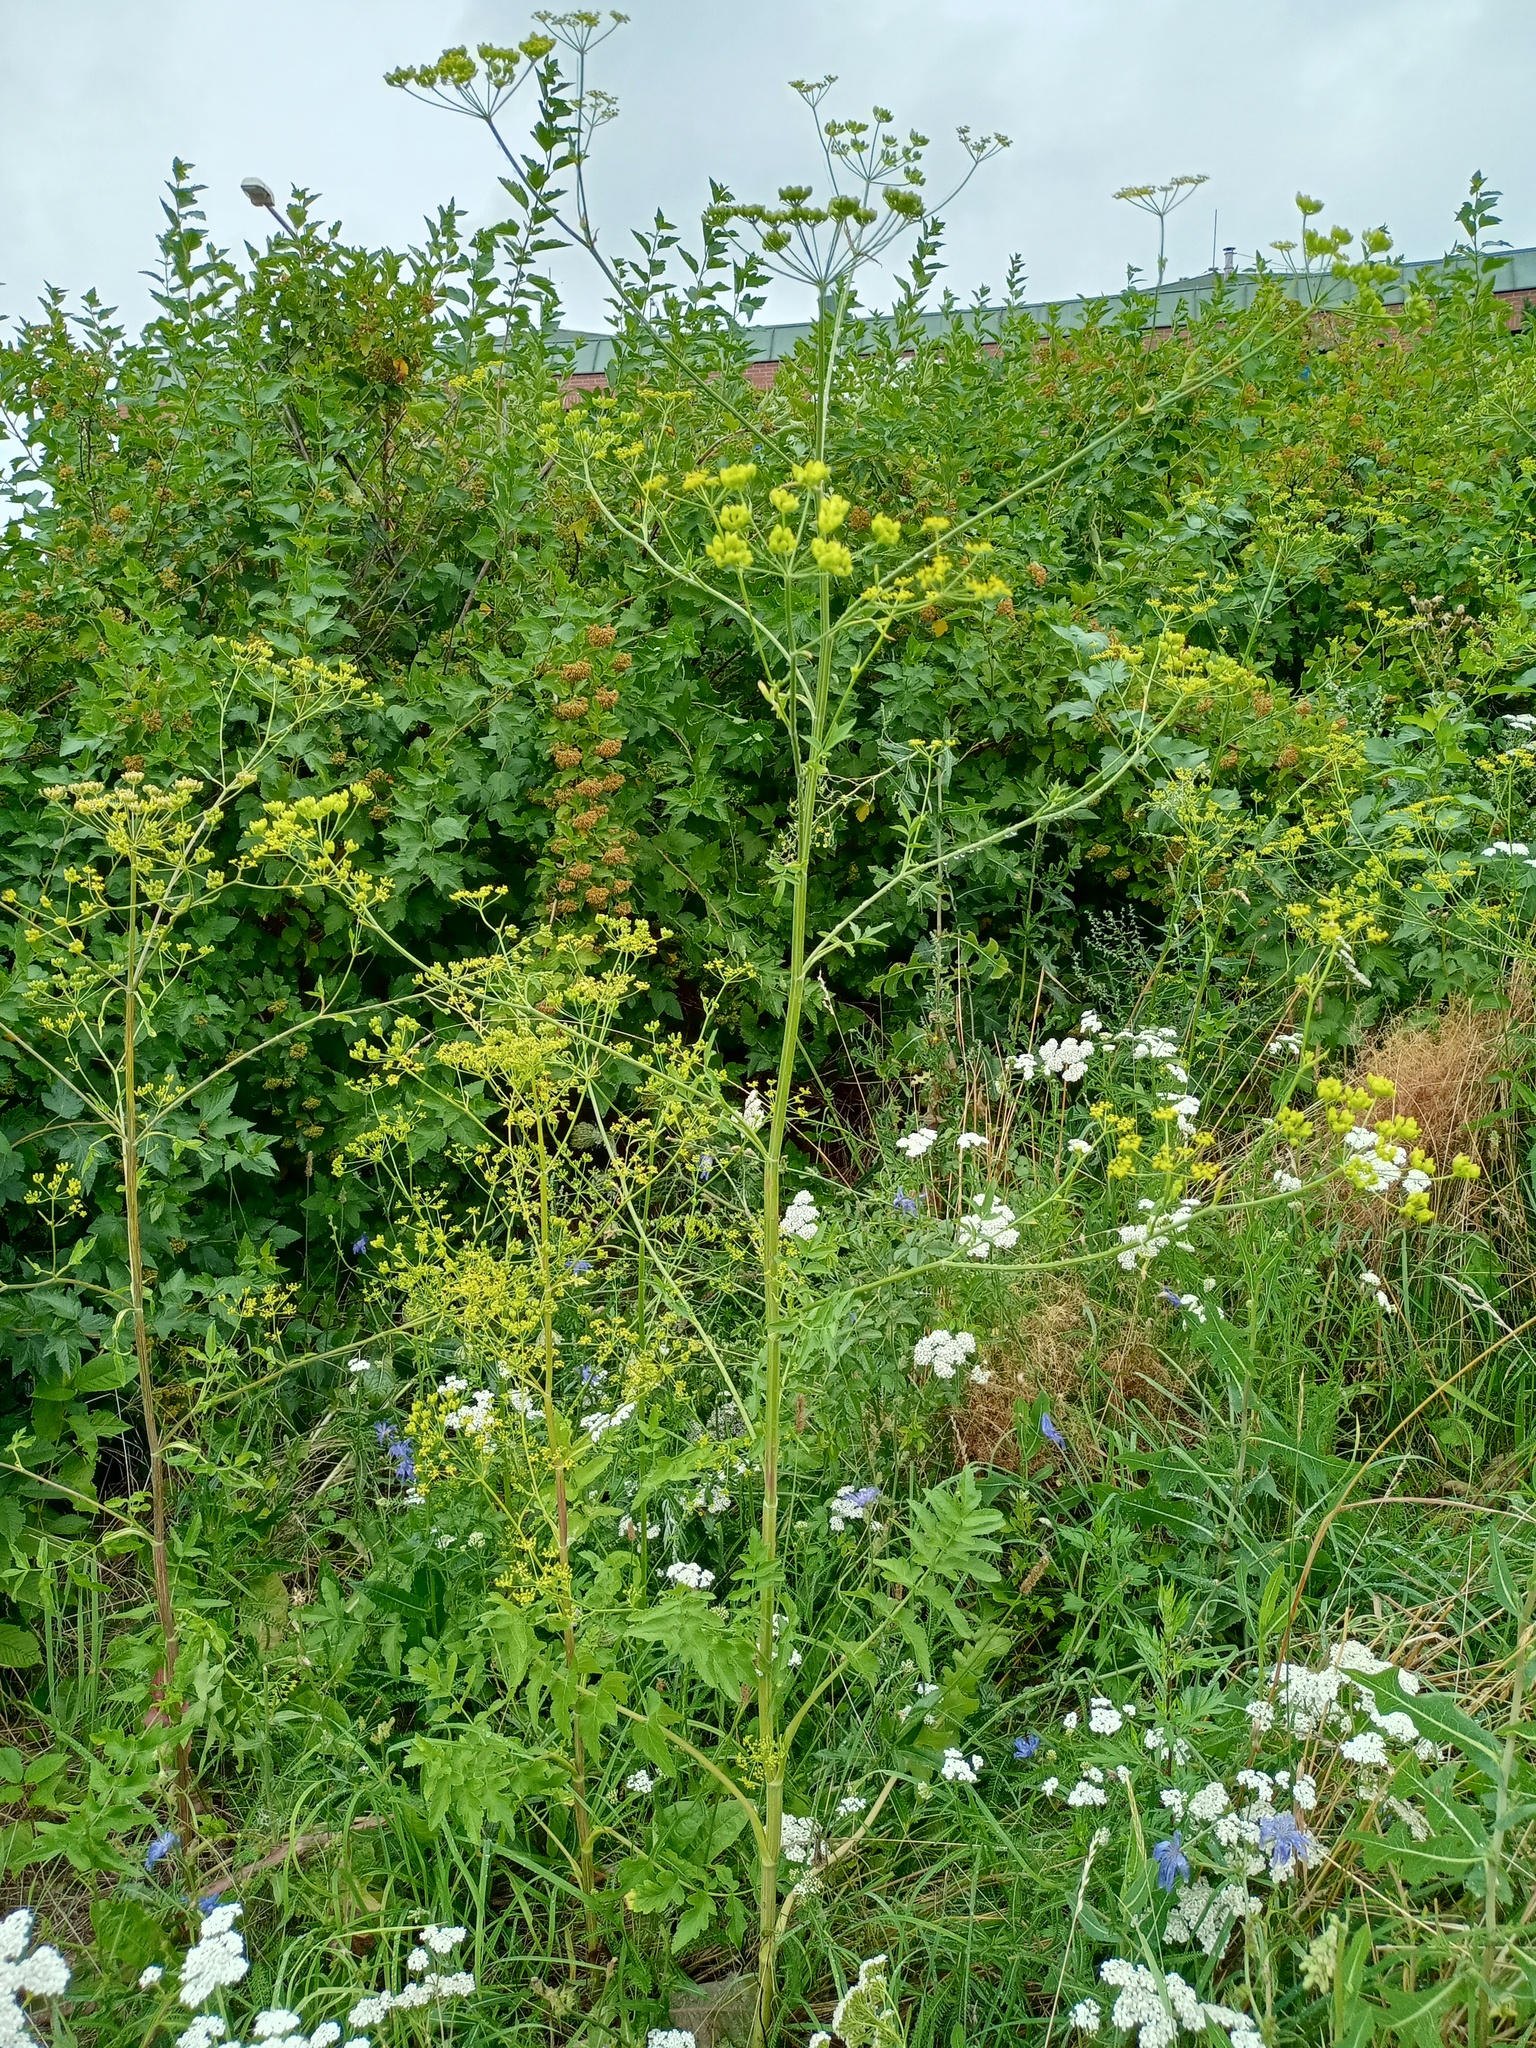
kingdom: Plantae
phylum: Tracheophyta
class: Magnoliopsida
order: Apiales
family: Apiaceae
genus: Pastinaca
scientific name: Pastinaca sativa
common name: Wild parsnip
